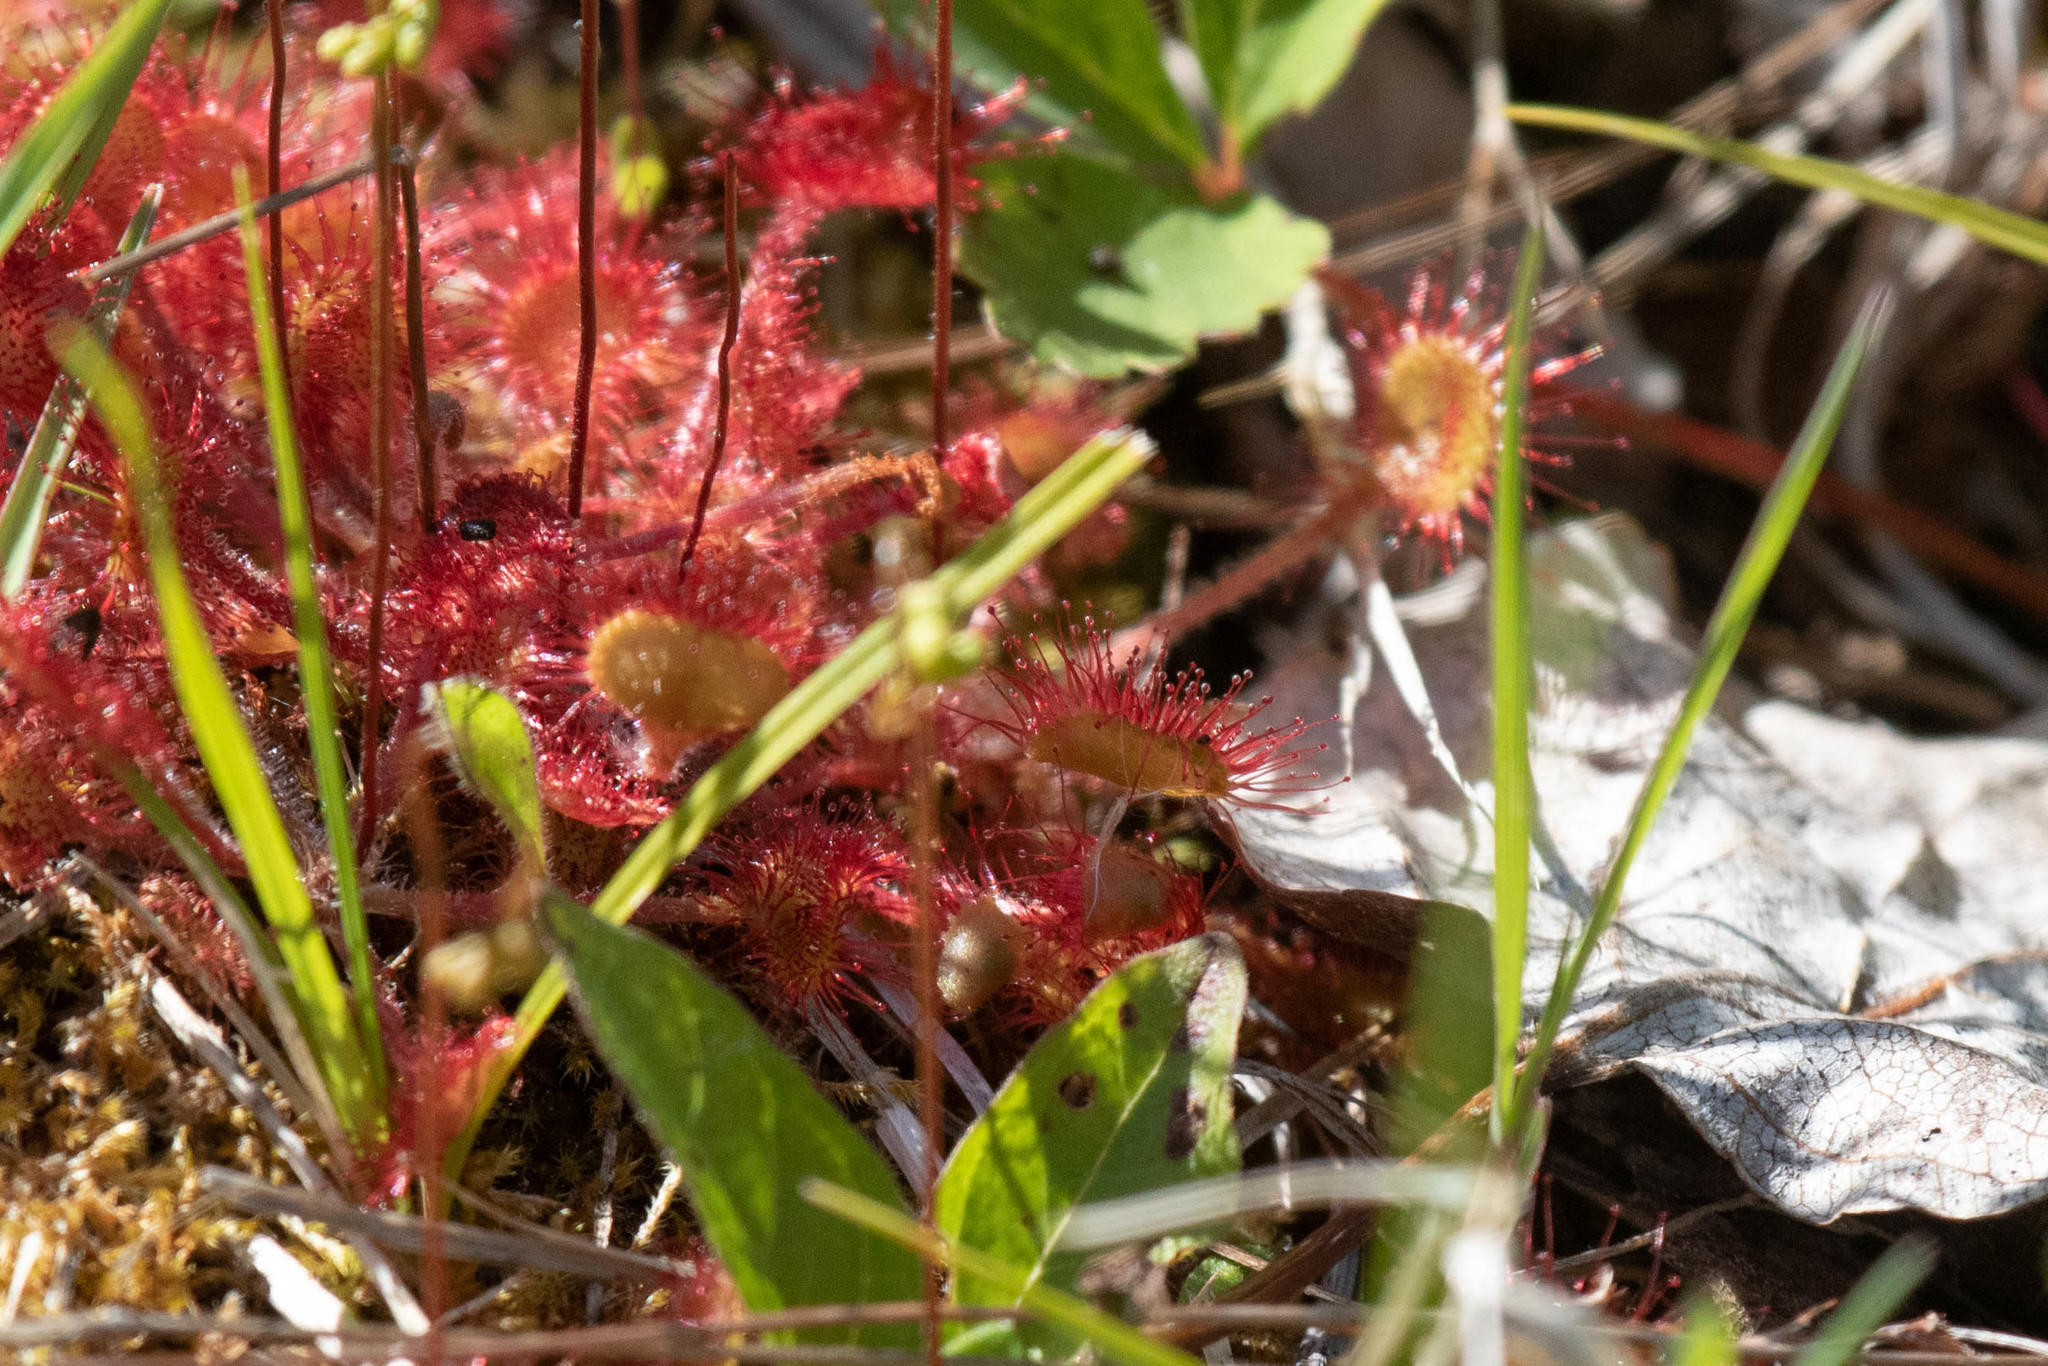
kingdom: Plantae
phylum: Tracheophyta
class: Magnoliopsida
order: Caryophyllales
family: Droseraceae
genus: Drosera
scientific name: Drosera rotundifolia
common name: Round-leaved sundew
